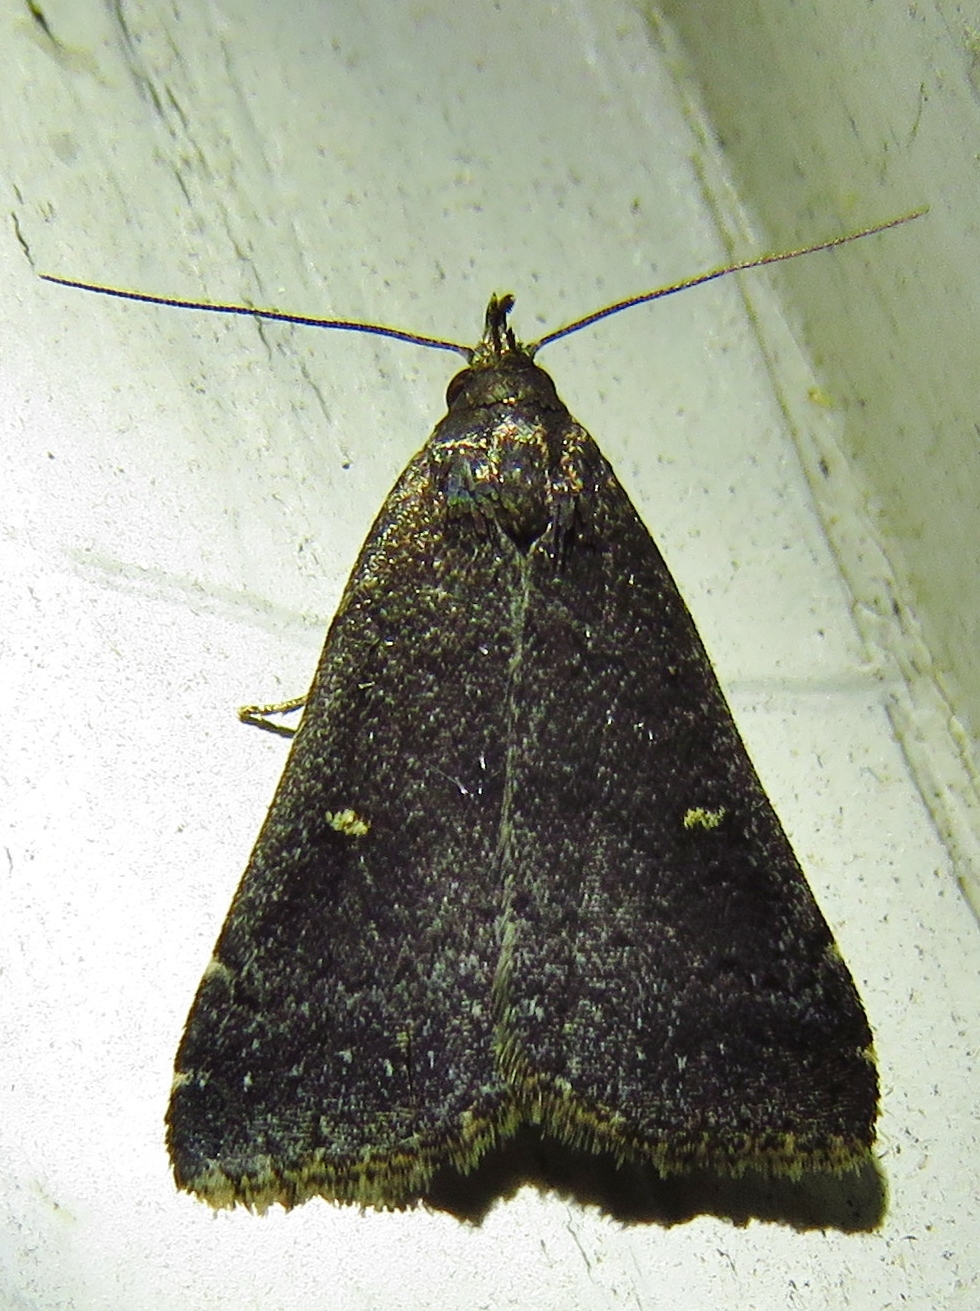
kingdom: Animalia
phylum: Arthropoda
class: Insecta
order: Lepidoptera
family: Erebidae
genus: Tetanolita
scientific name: Tetanolita mynesalis
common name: Smoky tetanolita moth
